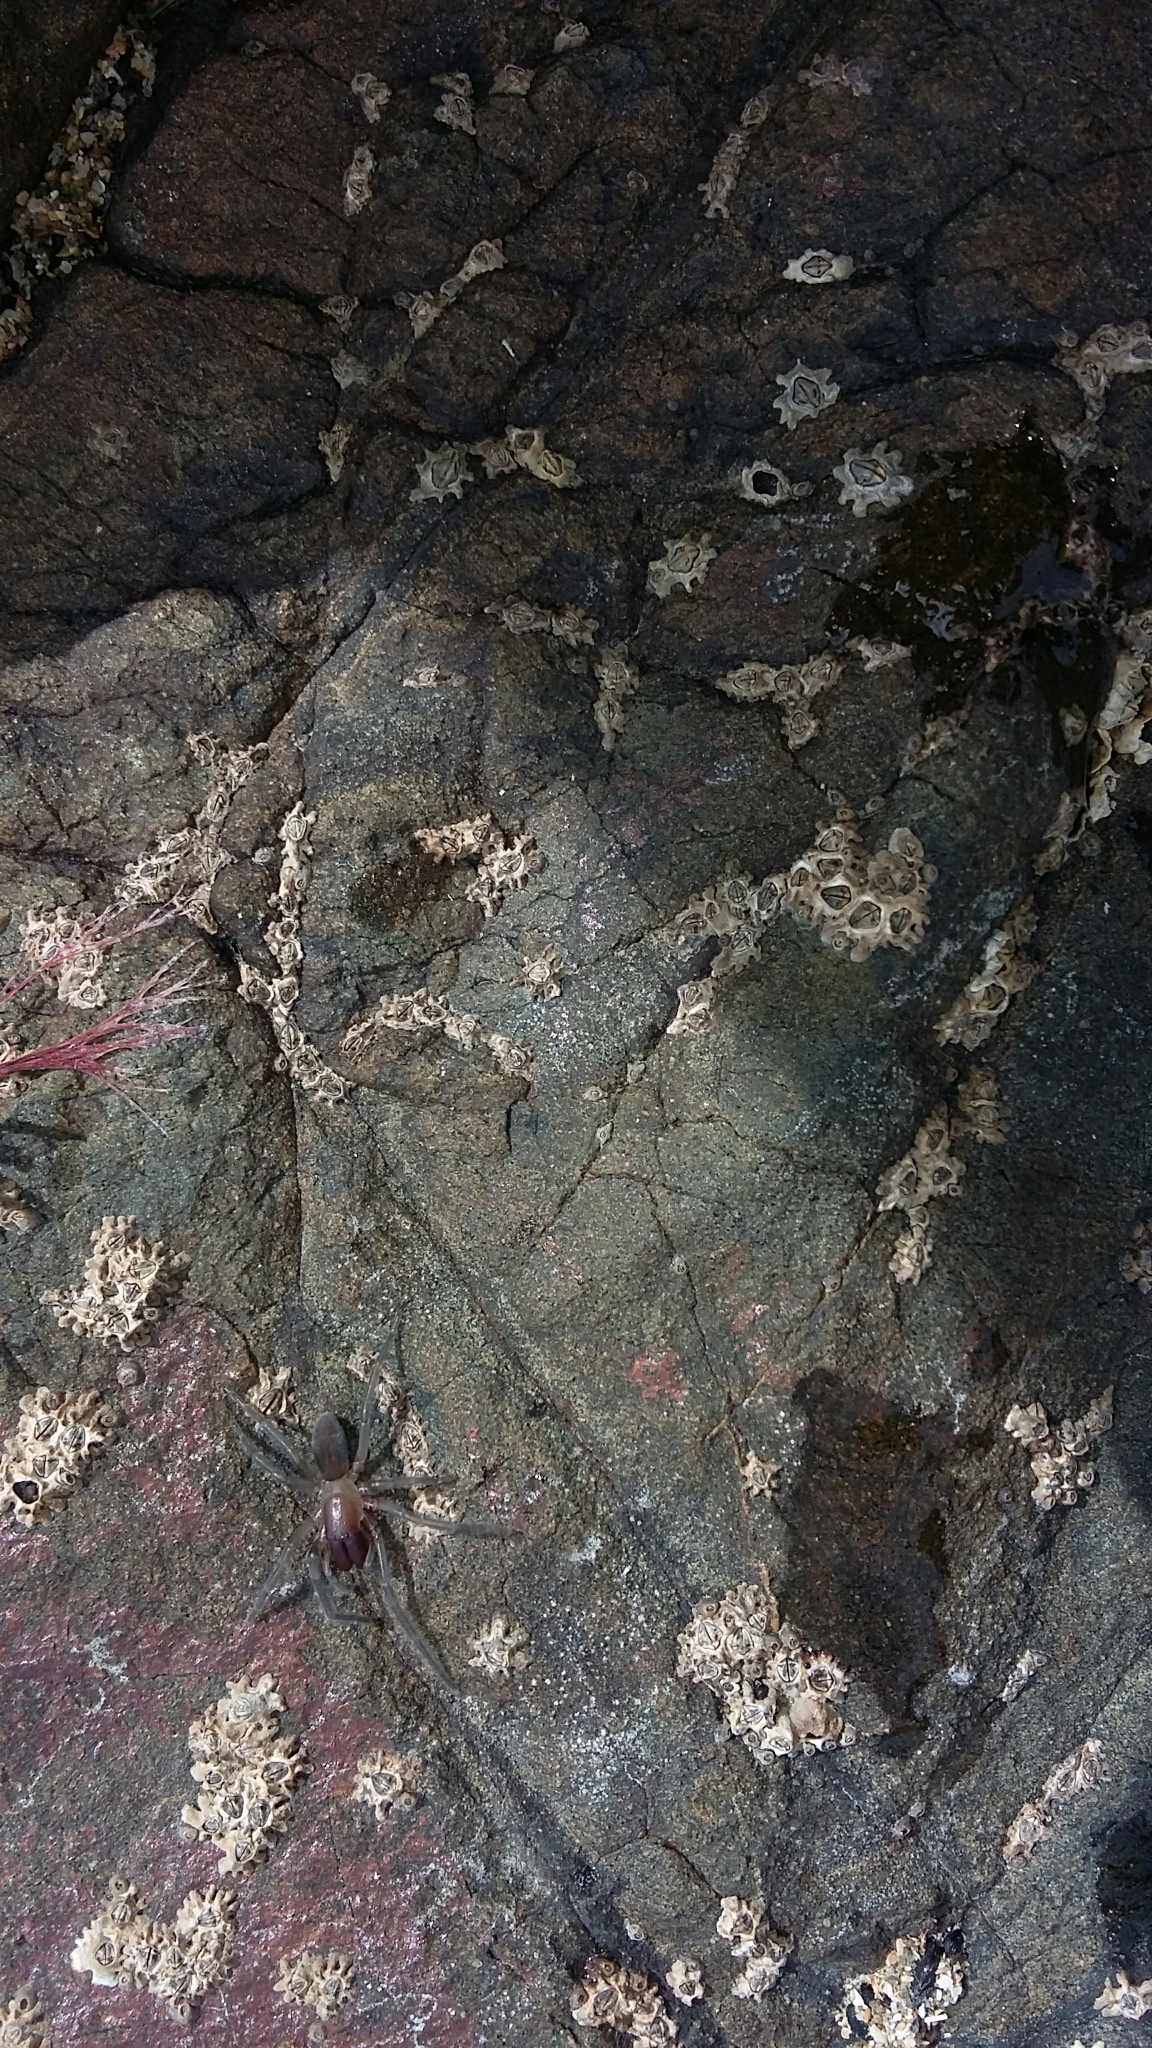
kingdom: Animalia
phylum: Arthropoda
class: Arachnida
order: Araneae
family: Desidae
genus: Desis
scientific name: Desis marina
